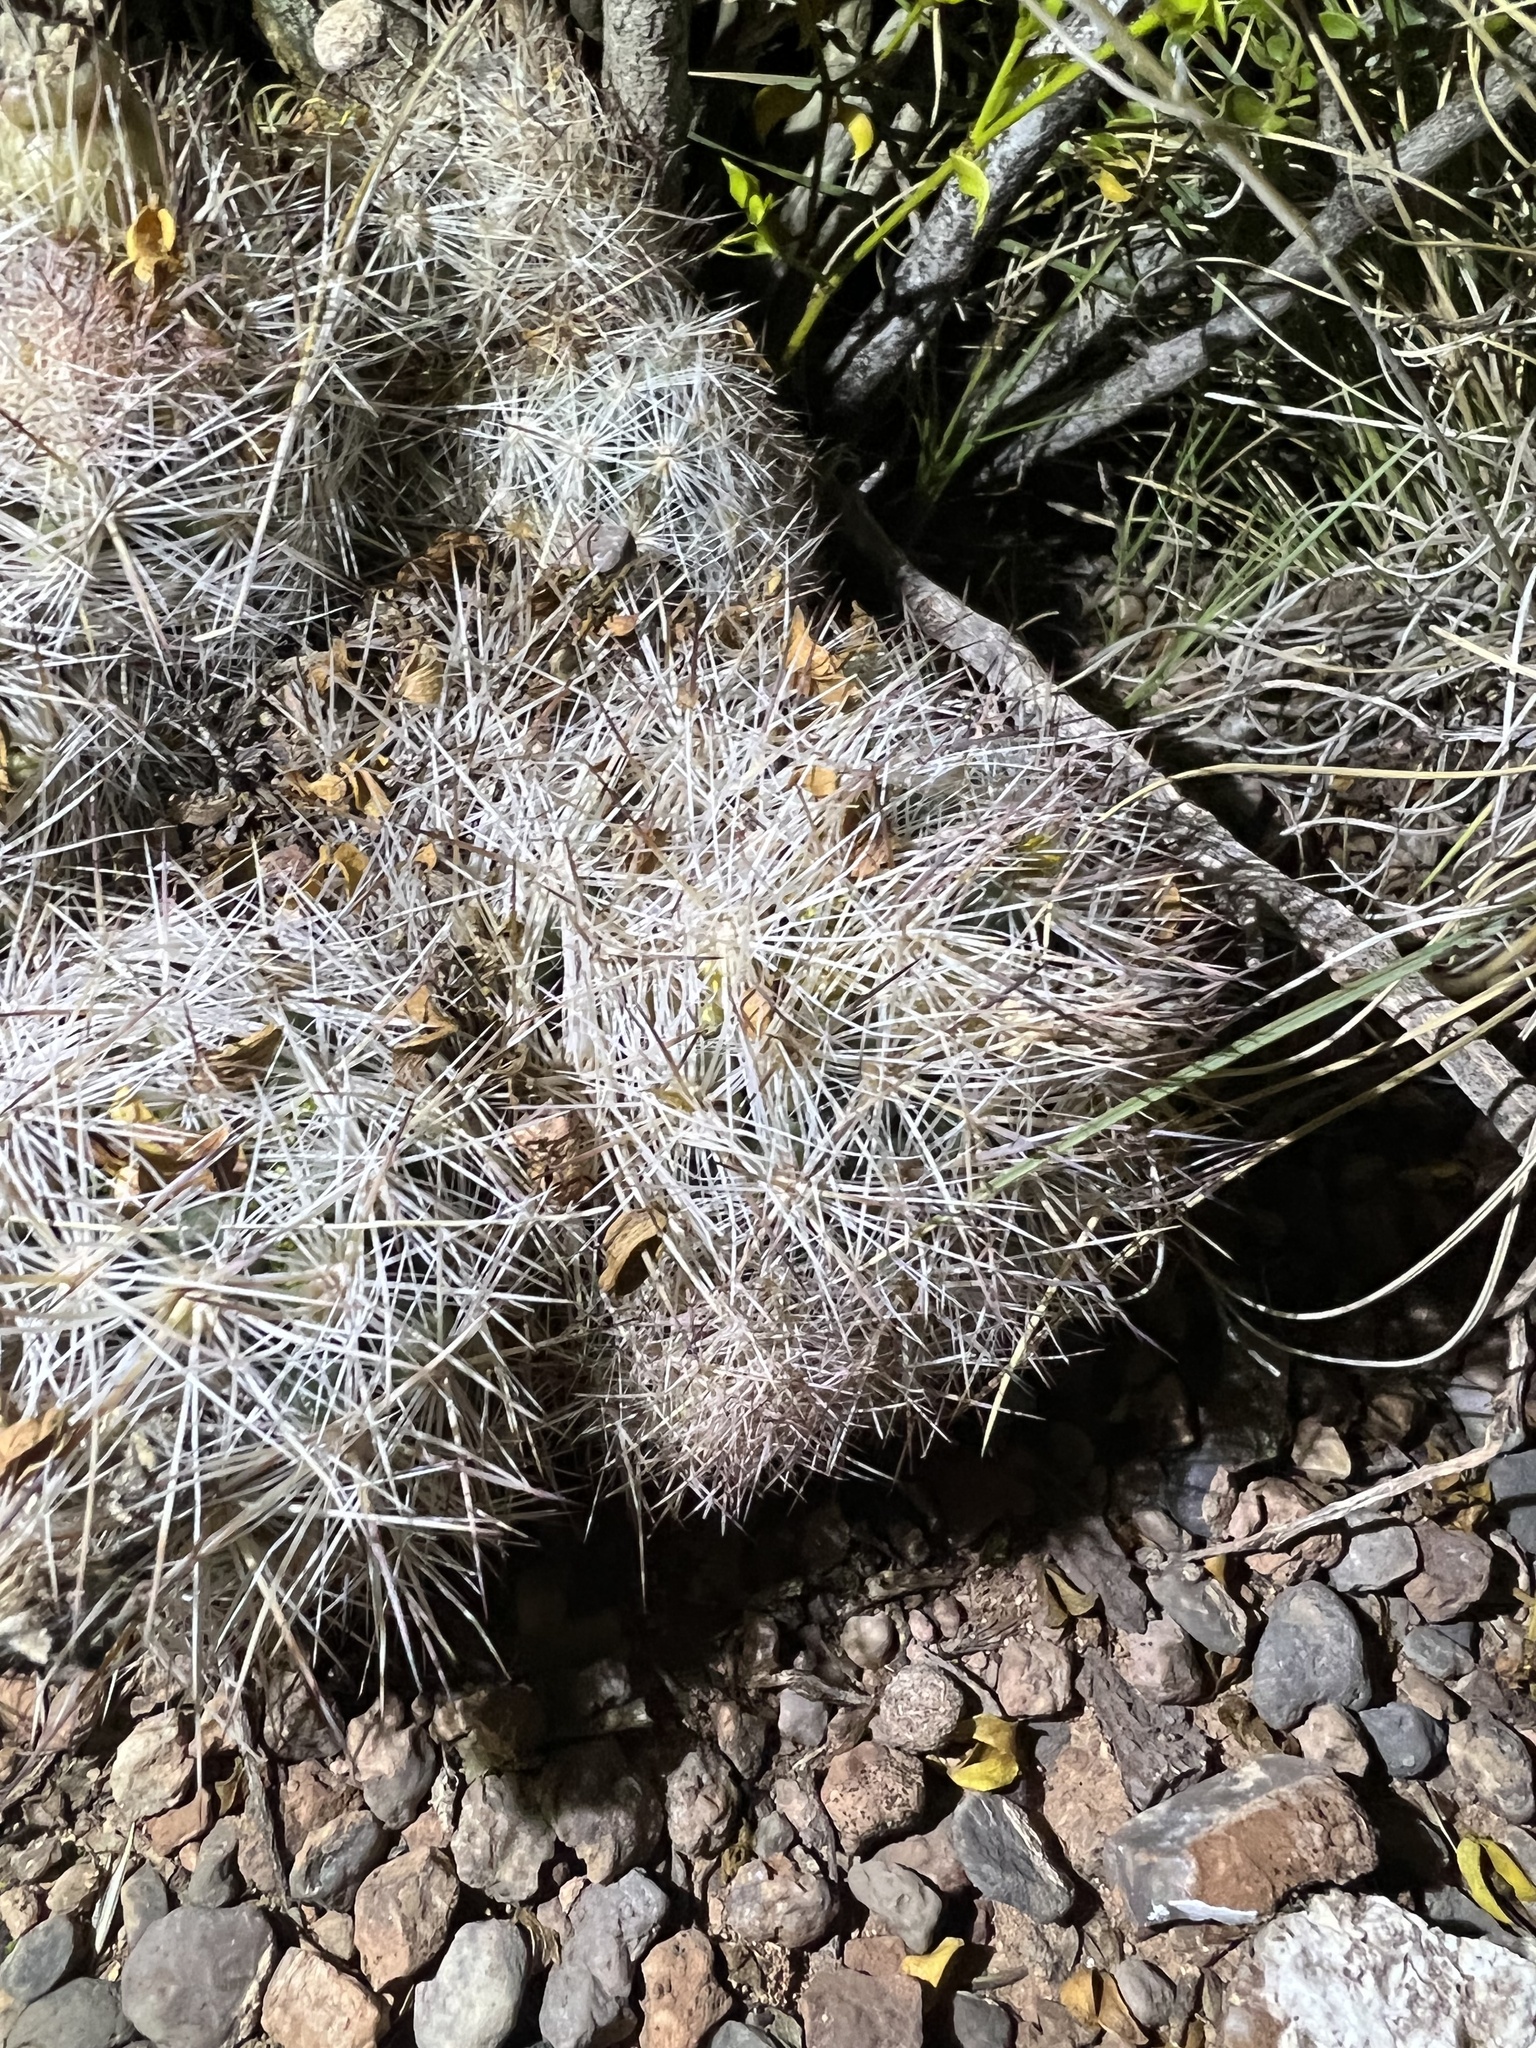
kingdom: Plantae
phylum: Tracheophyta
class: Magnoliopsida
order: Caryophyllales
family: Cactaceae
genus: Pelecyphora
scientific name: Pelecyphora sneedii
